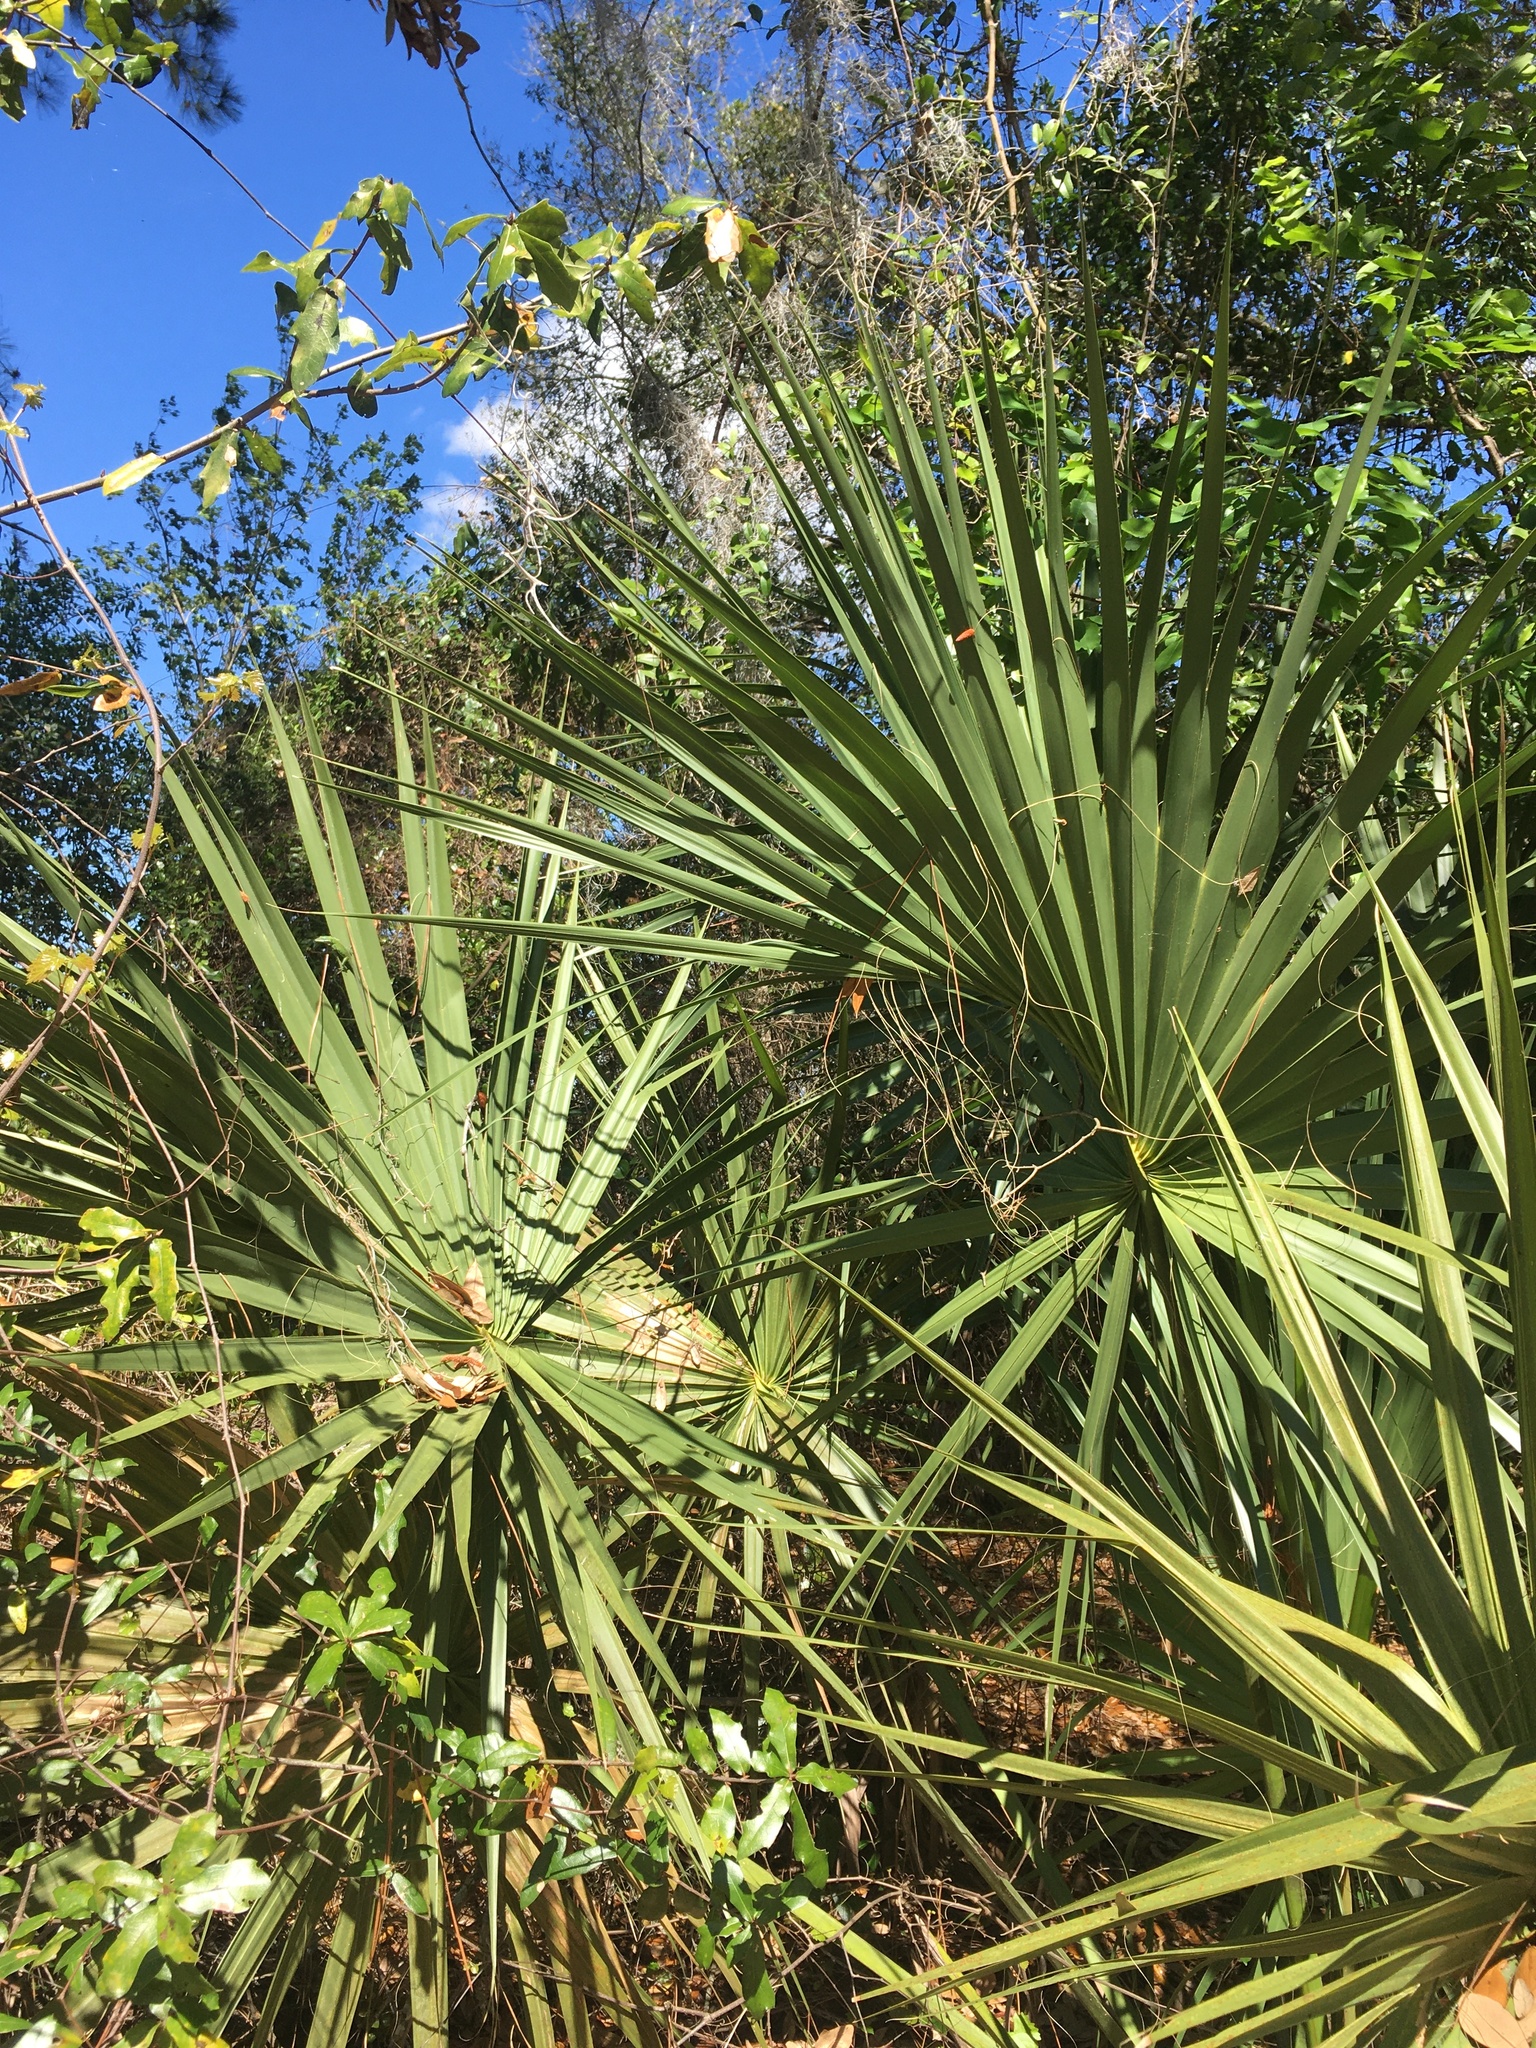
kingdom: Plantae
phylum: Tracheophyta
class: Liliopsida
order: Arecales
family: Arecaceae
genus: Sabal
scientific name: Sabal palmetto
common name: Blue palmetto
